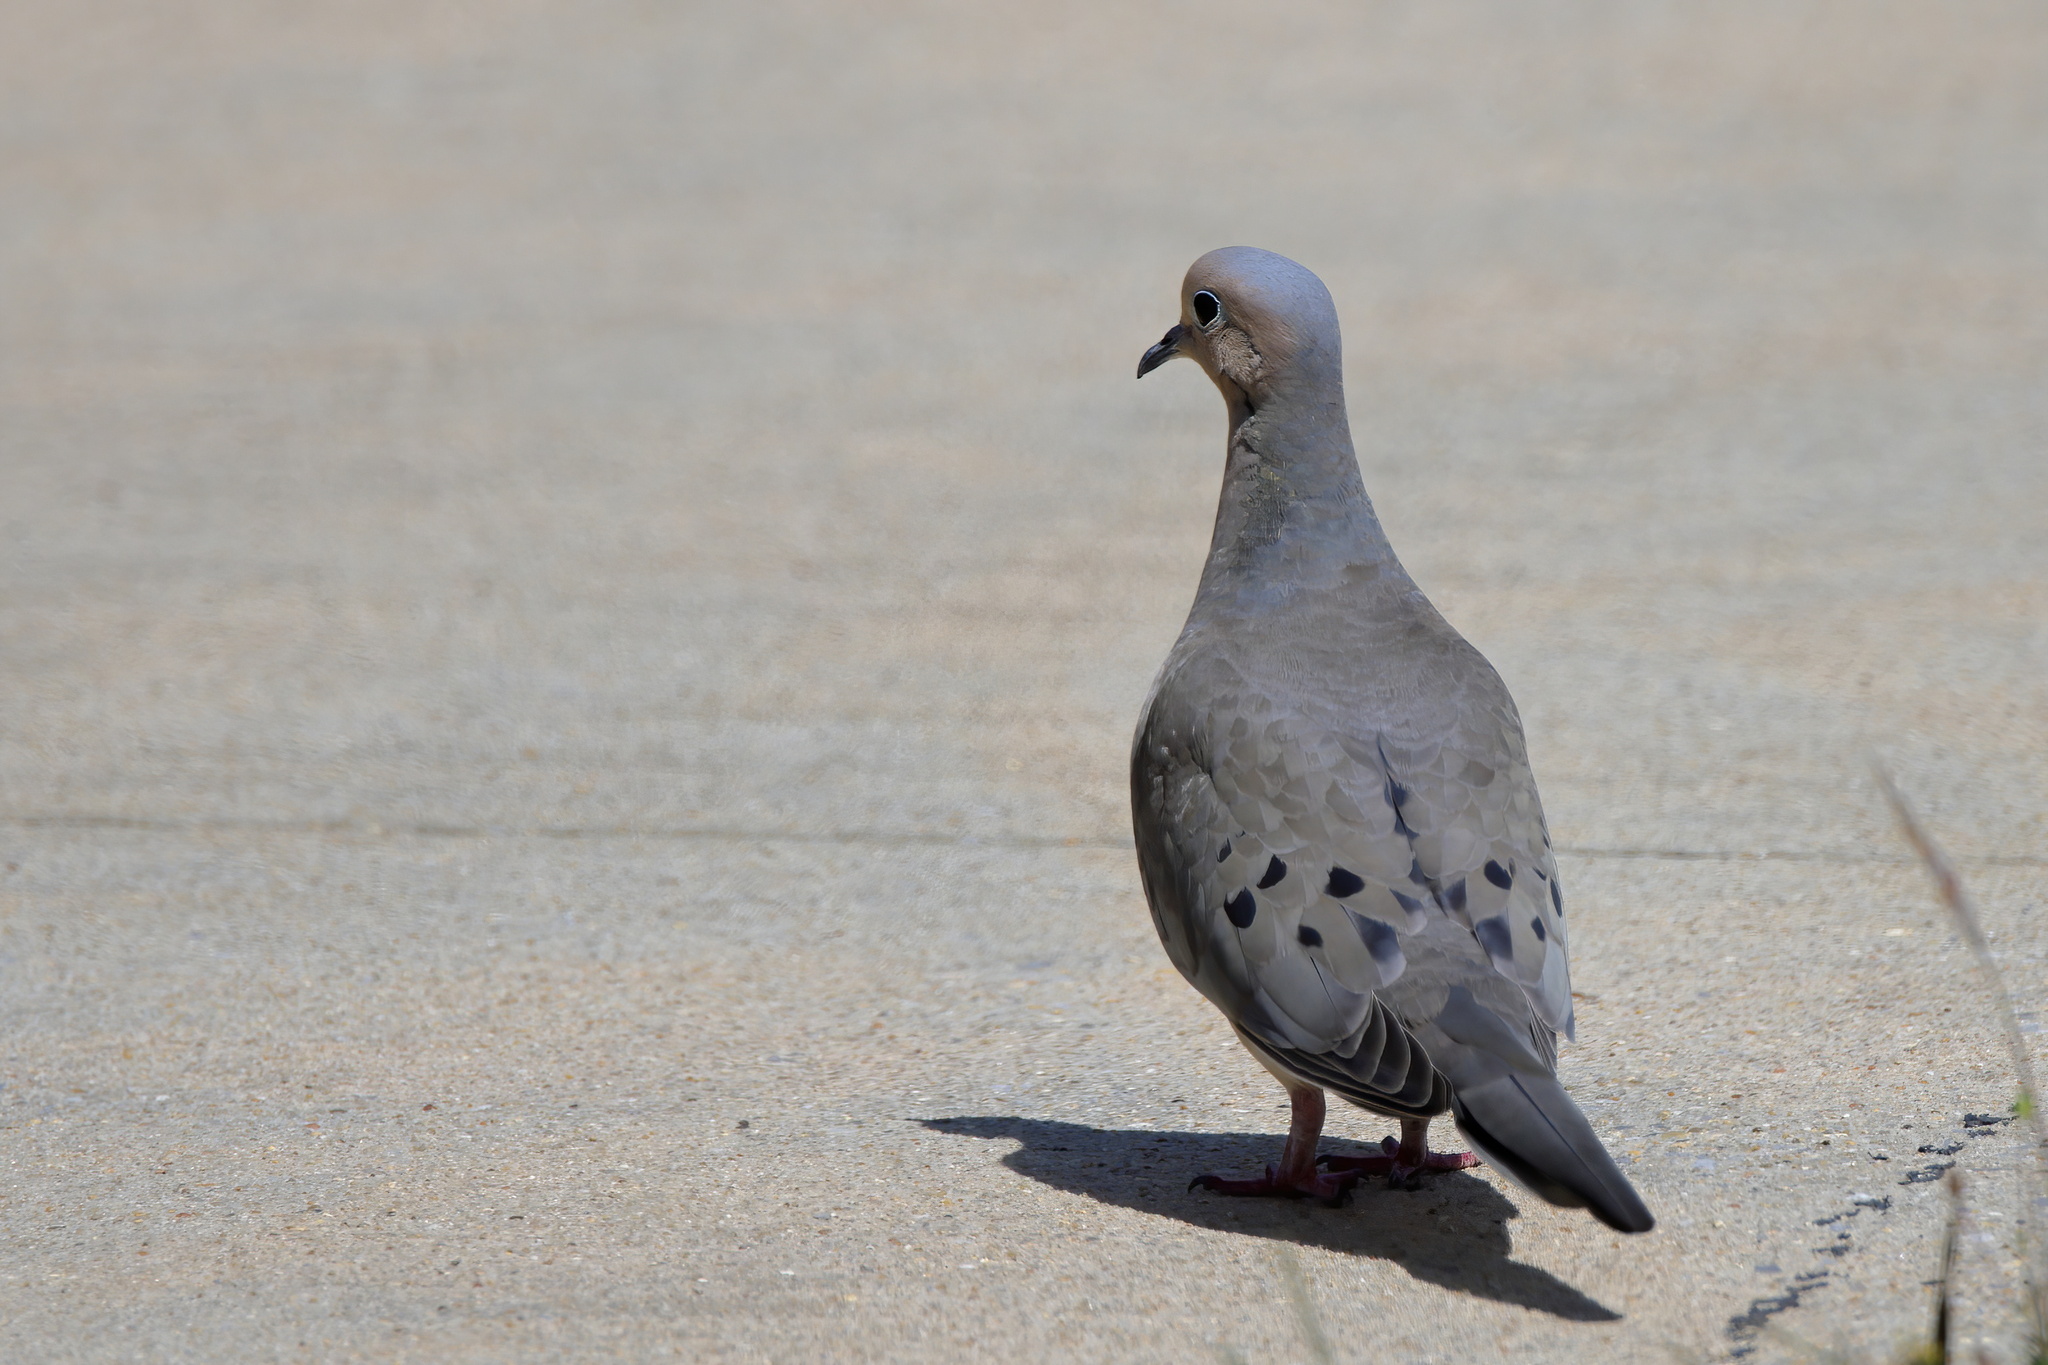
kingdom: Animalia
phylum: Chordata
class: Aves
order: Columbiformes
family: Columbidae
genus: Zenaida
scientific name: Zenaida macroura
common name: Mourning dove
